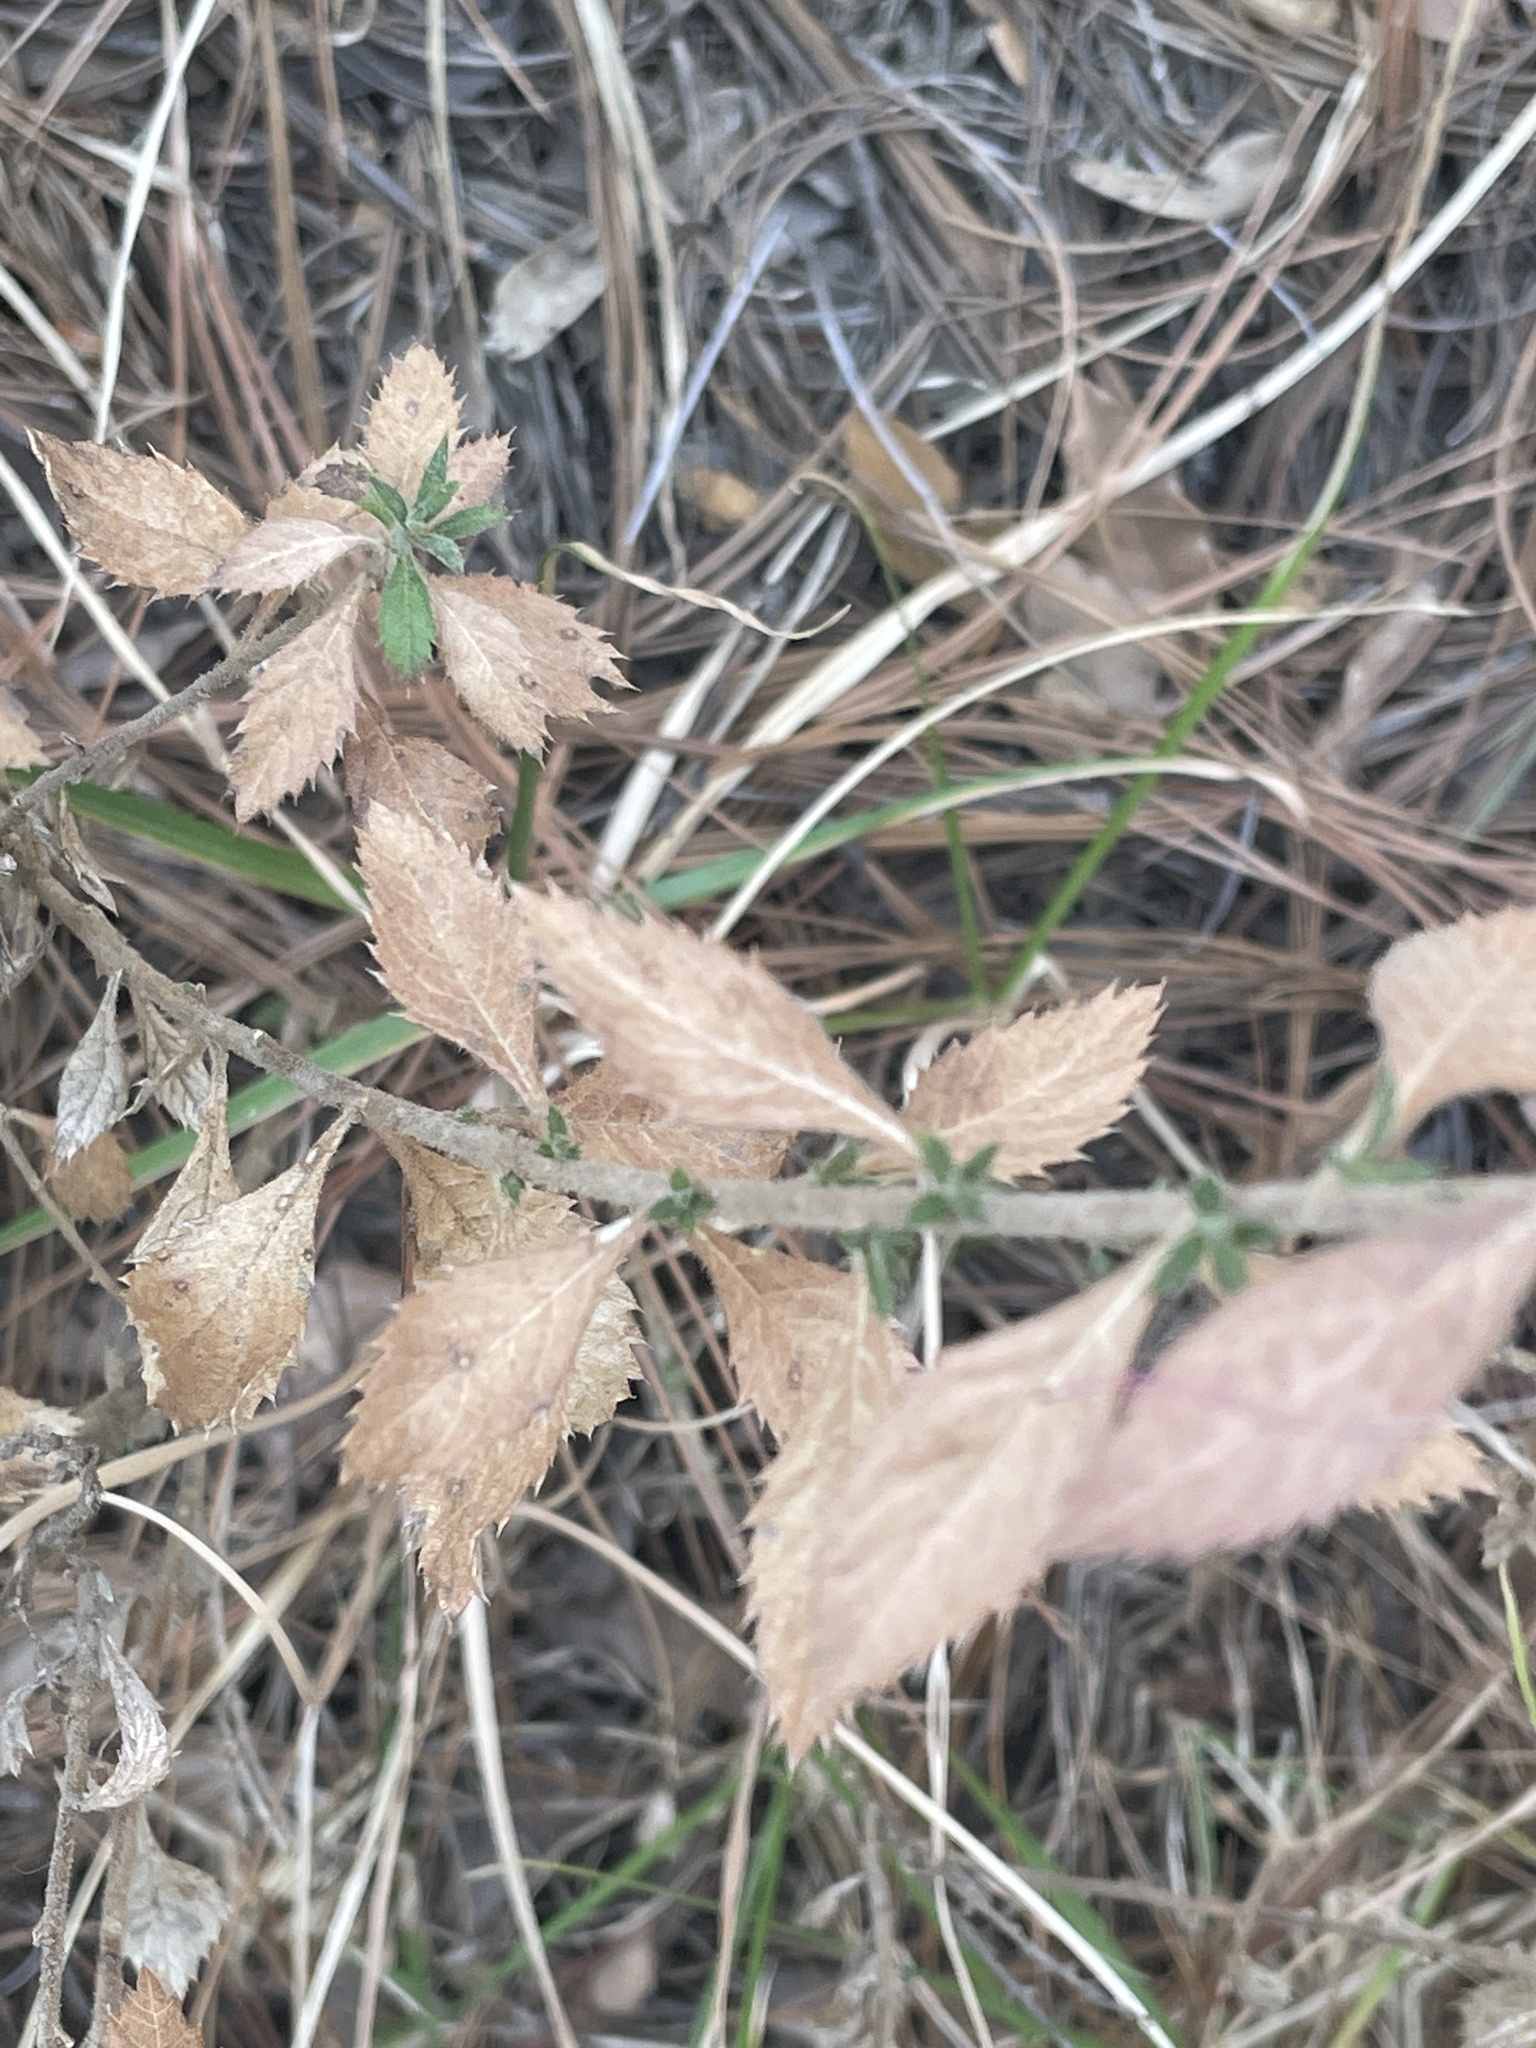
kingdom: Plantae
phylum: Tracheophyta
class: Magnoliopsida
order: Ericales
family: Polemoniaceae
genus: Loeselia
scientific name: Loeselia mexicana
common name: Mexican false calico
